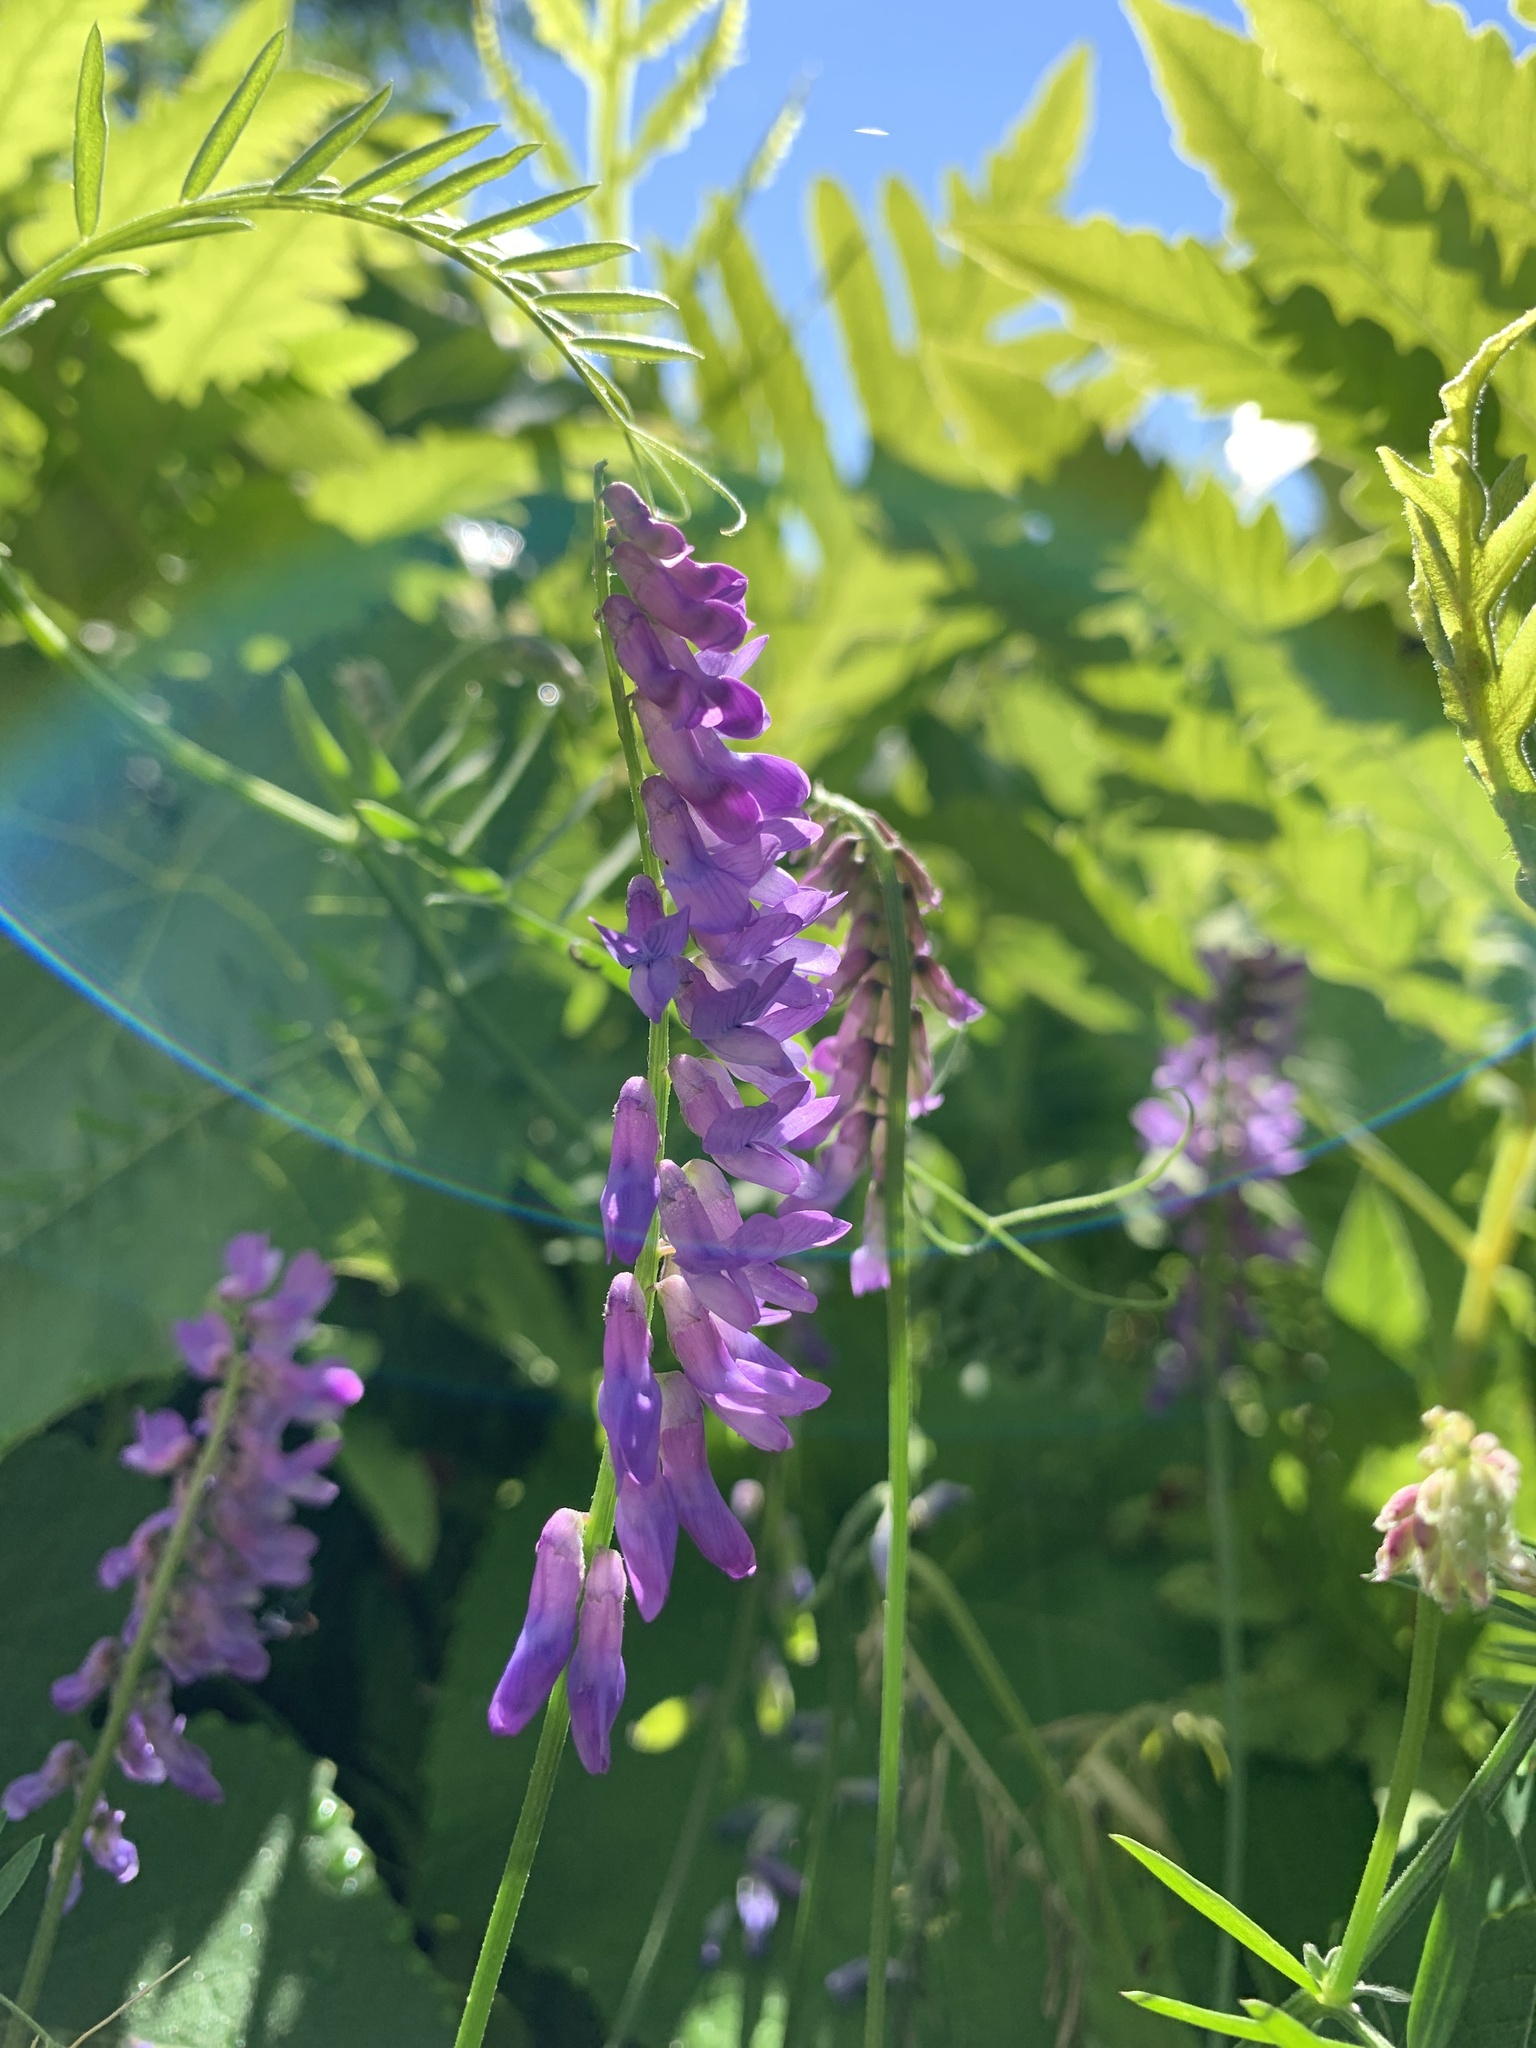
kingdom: Plantae
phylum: Tracheophyta
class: Magnoliopsida
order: Fabales
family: Fabaceae
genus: Vicia
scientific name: Vicia cracca
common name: Bird vetch
